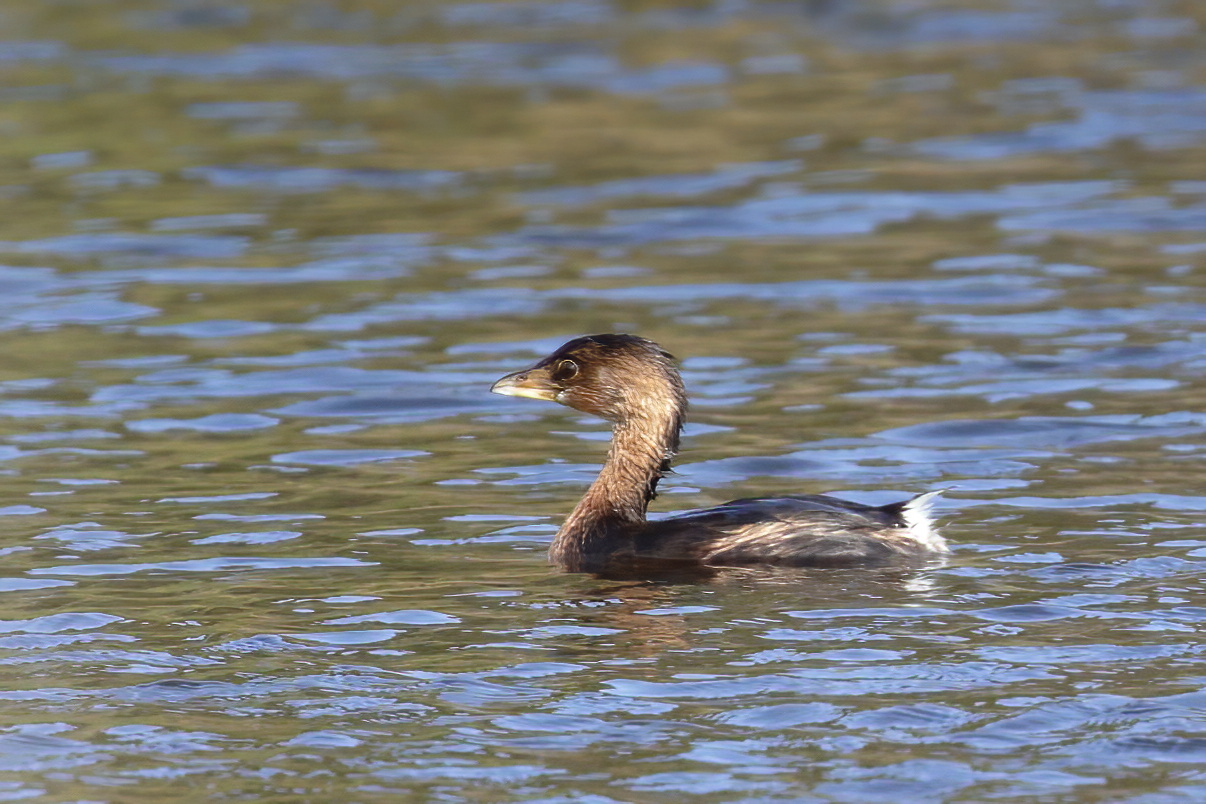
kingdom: Animalia
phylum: Chordata
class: Aves
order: Podicipediformes
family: Podicipedidae
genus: Podilymbus
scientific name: Podilymbus podiceps
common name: Pied-billed grebe
